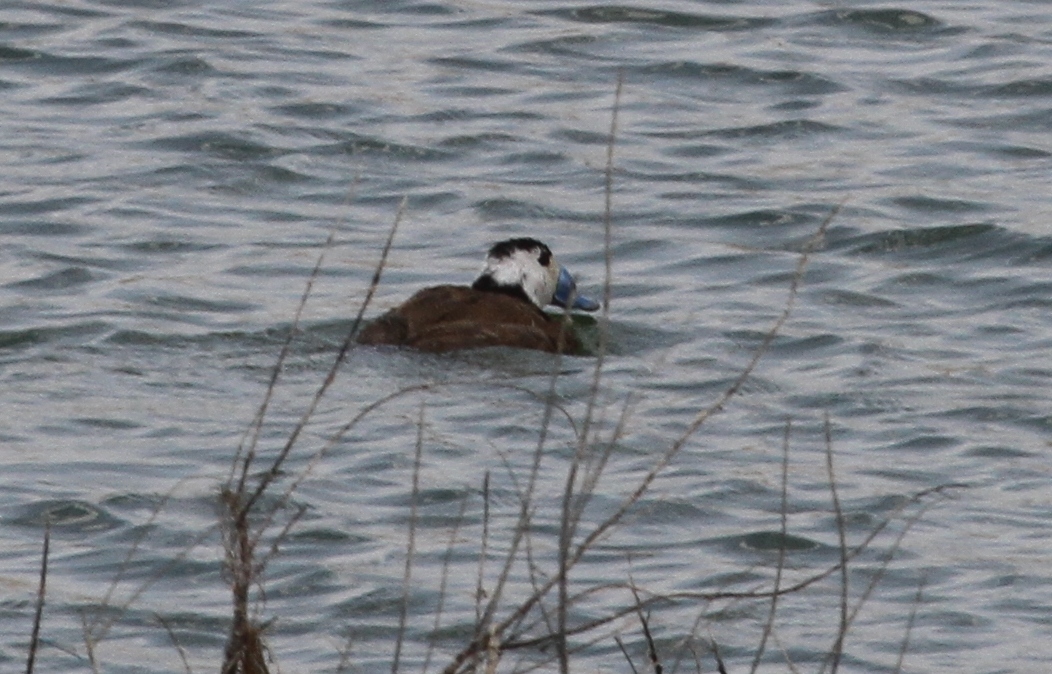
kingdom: Animalia
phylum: Chordata
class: Aves
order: Anseriformes
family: Anatidae
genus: Oxyura
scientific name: Oxyura leucocephala
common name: White-headed duck
